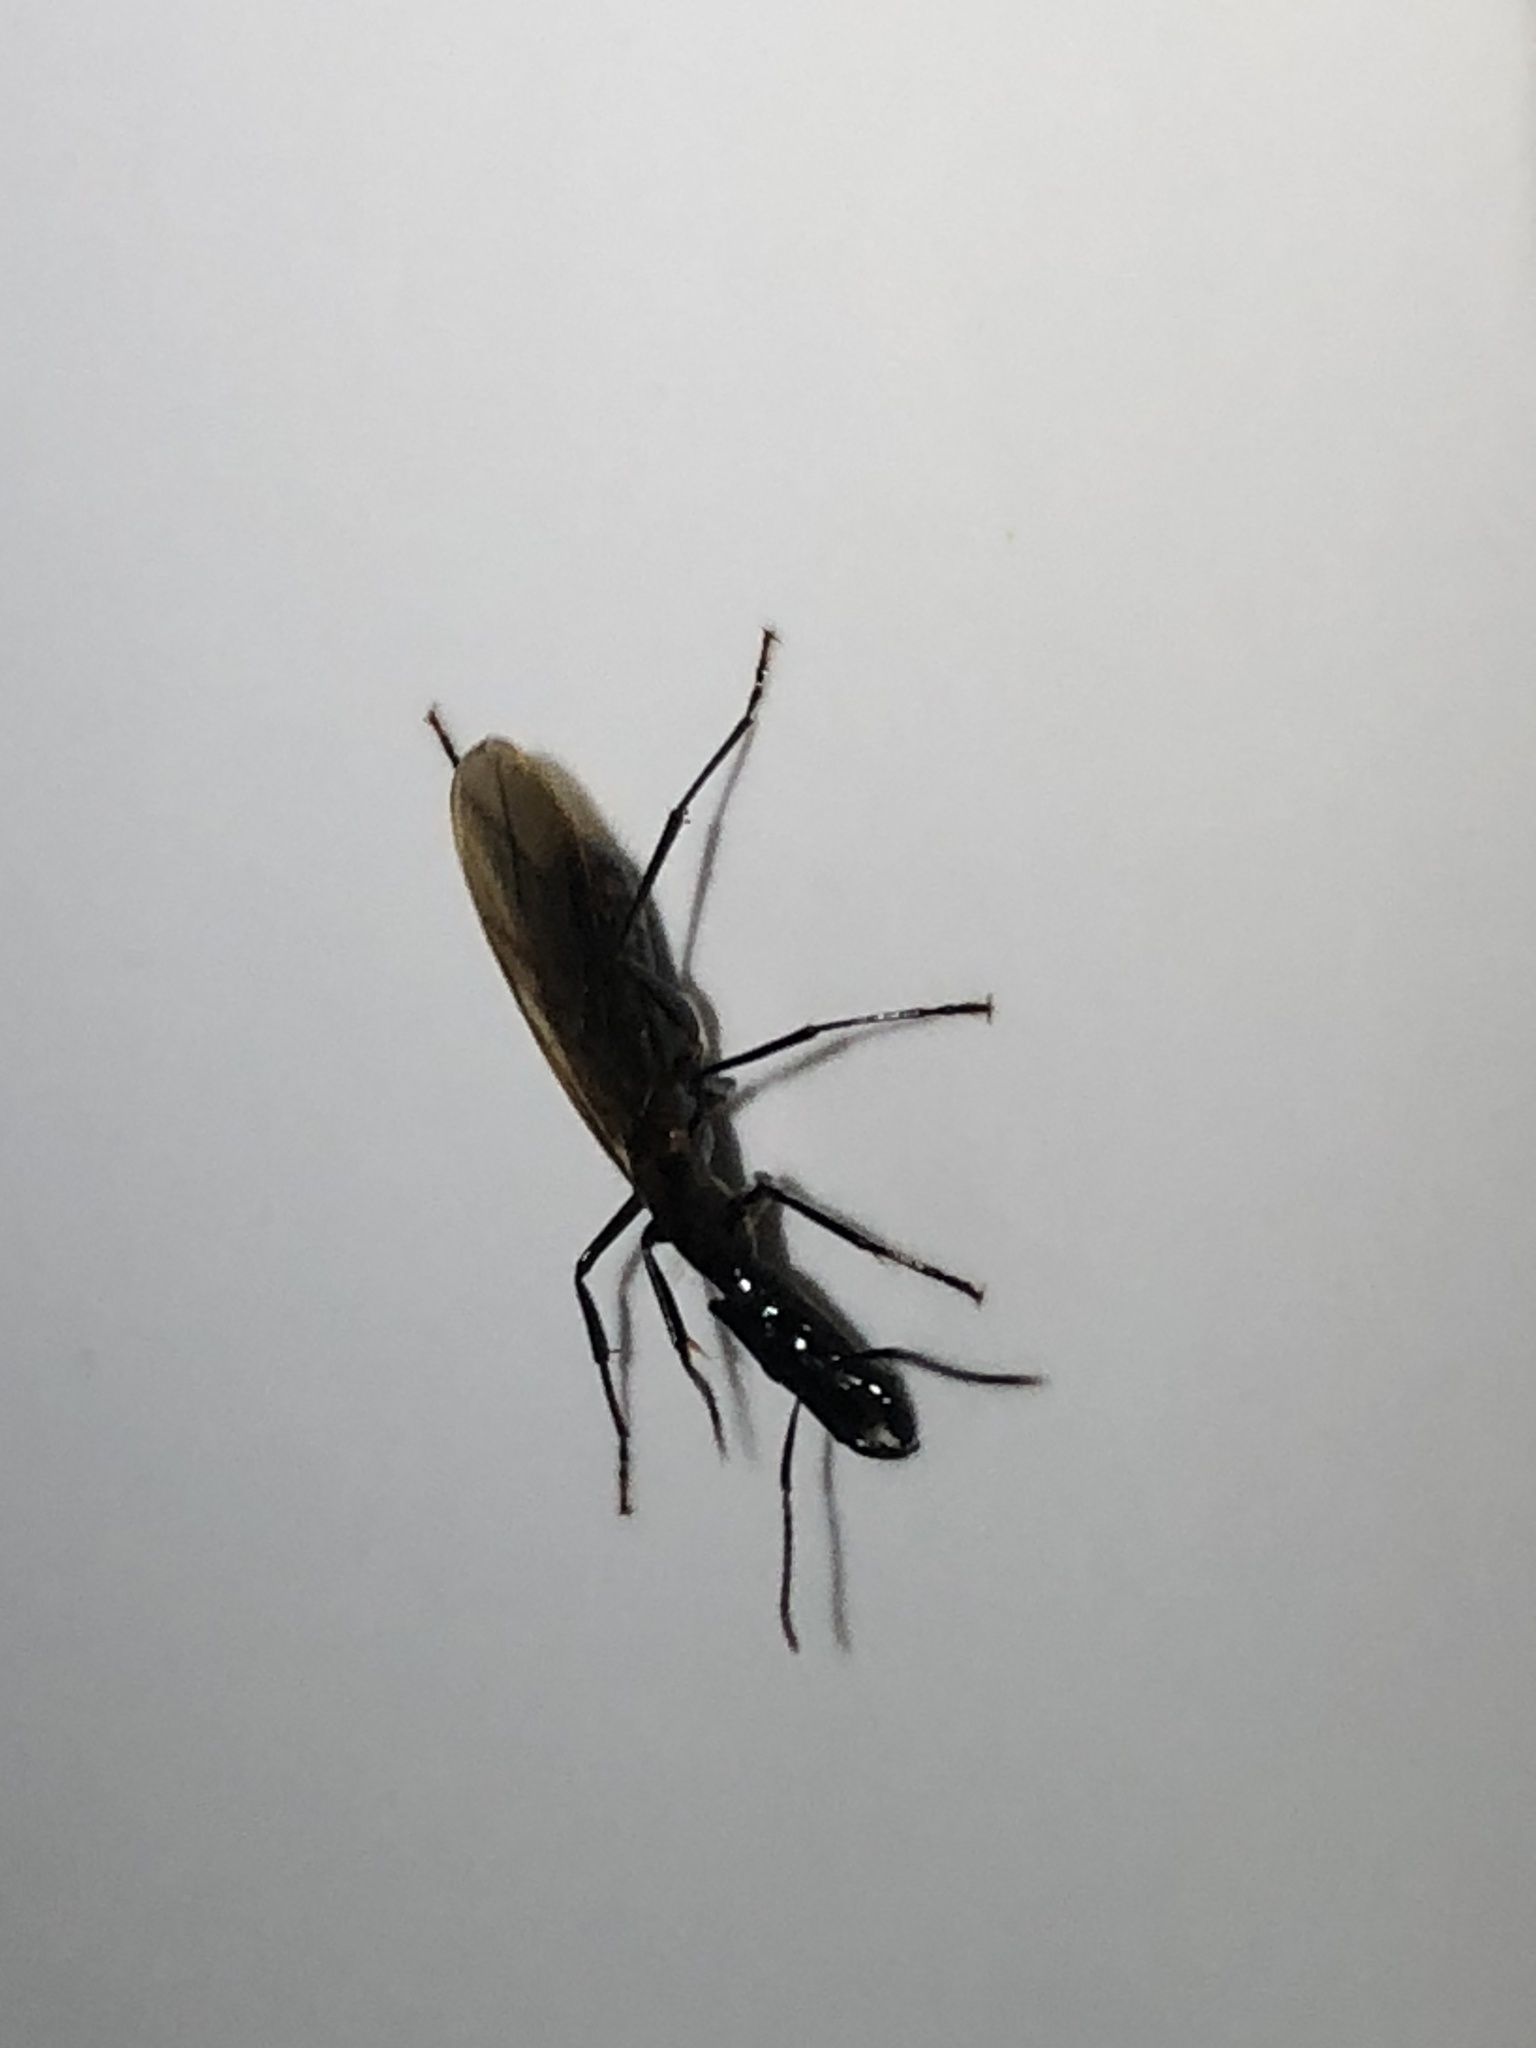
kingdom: Animalia
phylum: Arthropoda
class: Insecta
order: Hymenoptera
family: Formicidae
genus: Camponotus
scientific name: Camponotus mirabilis
